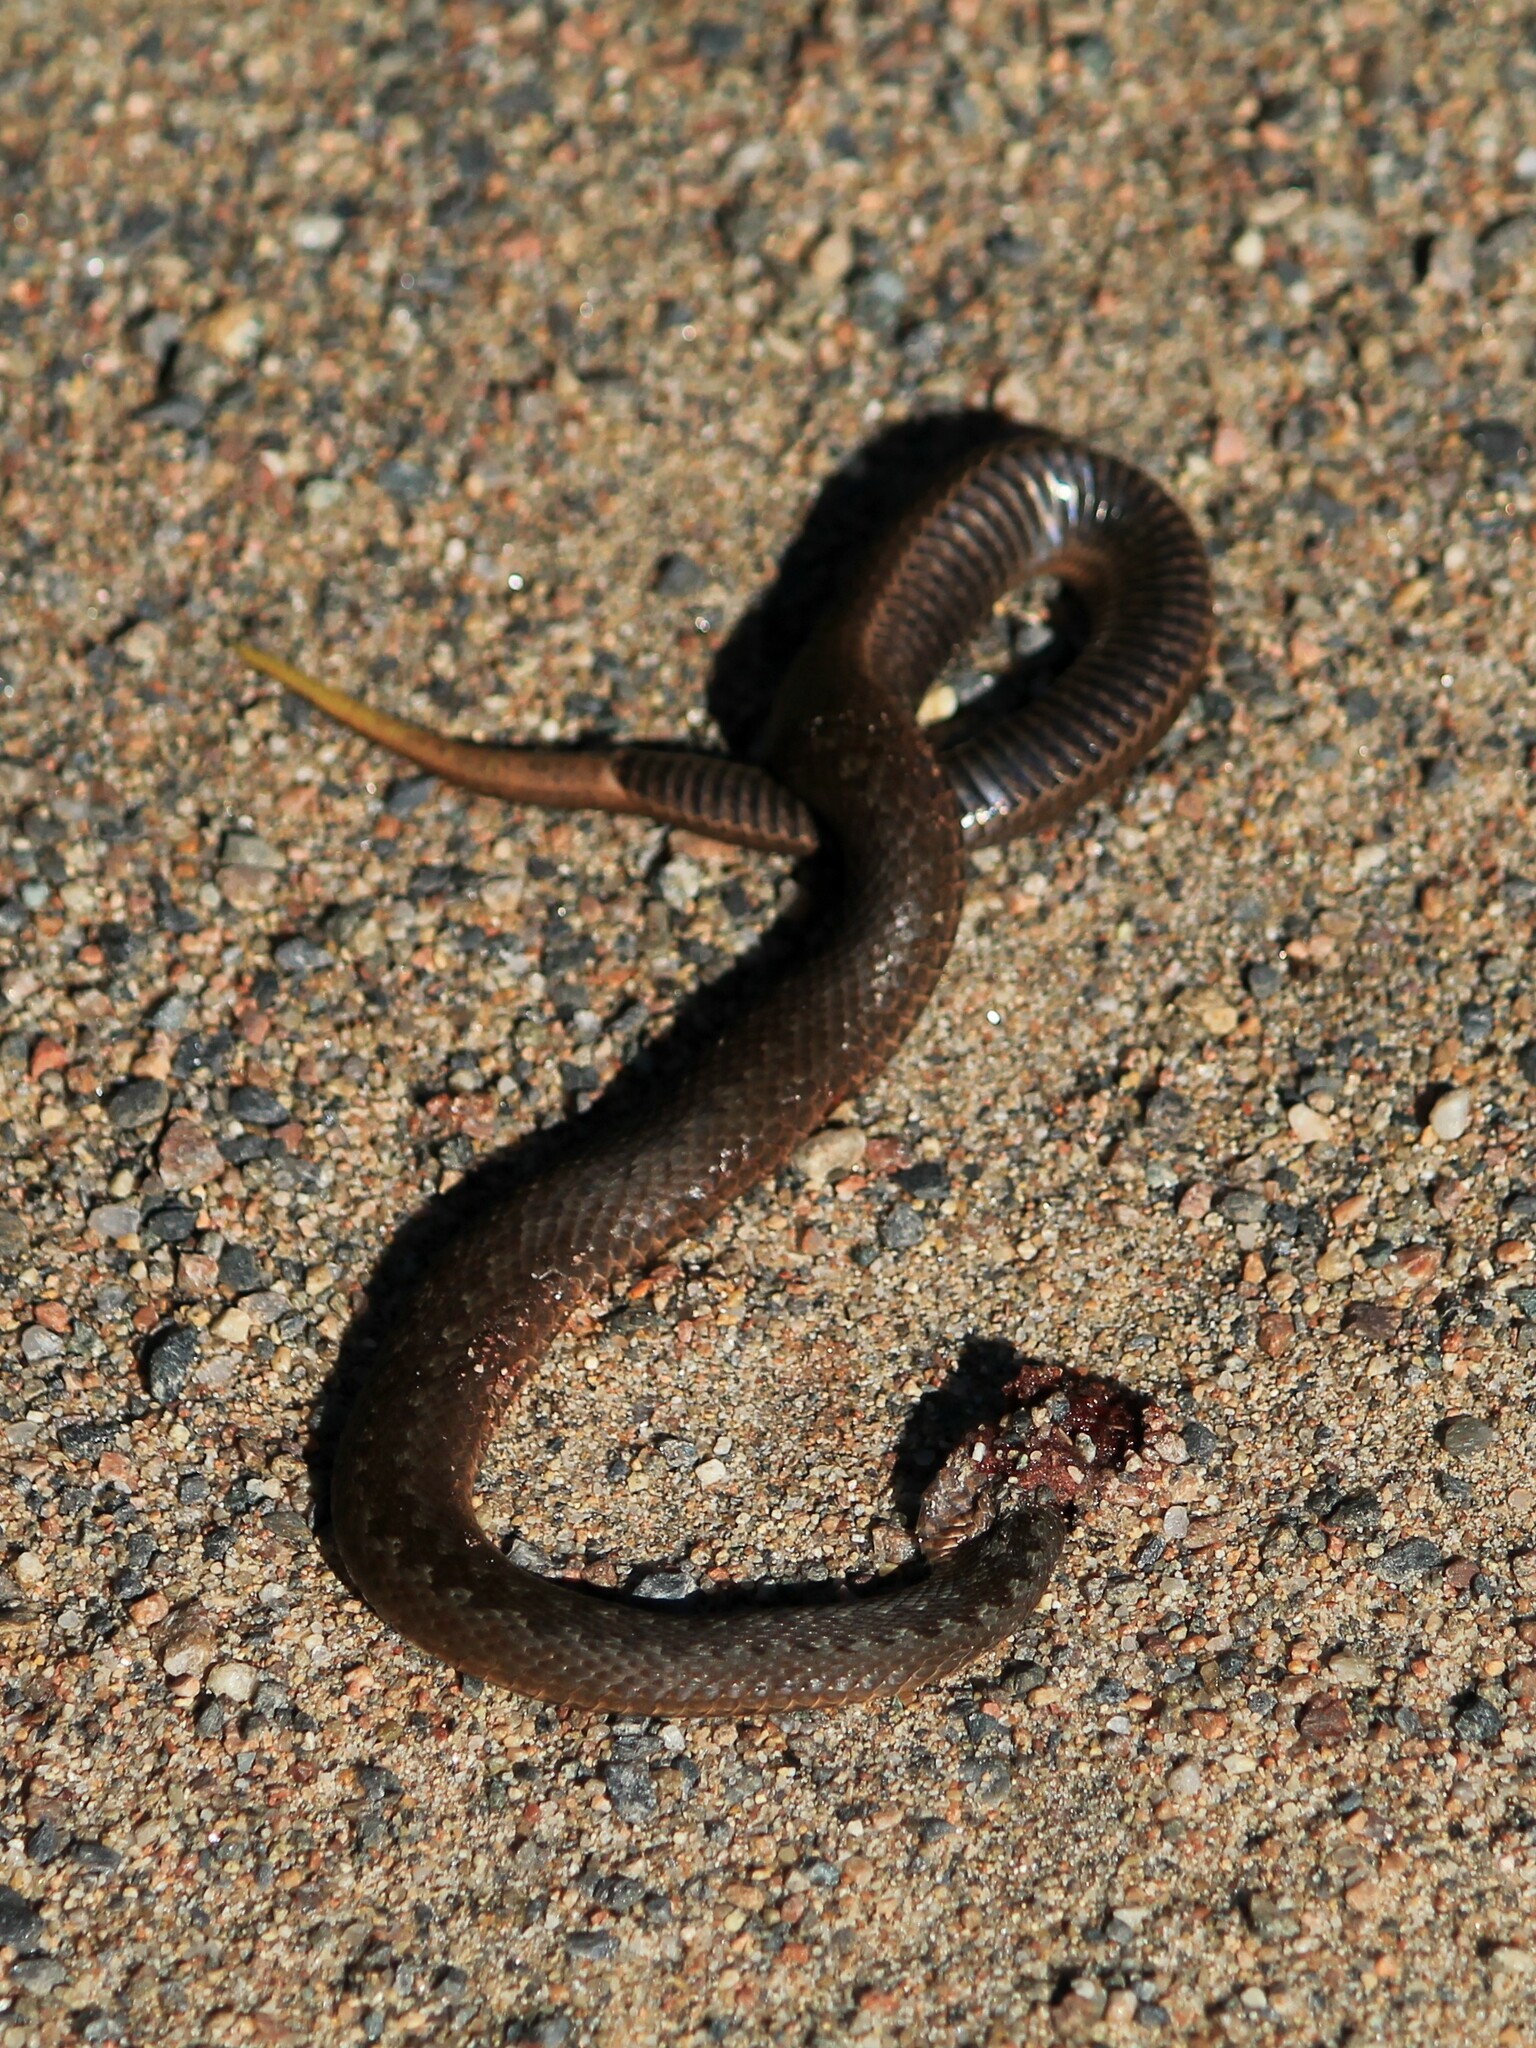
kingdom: Animalia
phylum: Chordata
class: Squamata
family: Viperidae
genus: Vipera
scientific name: Vipera berus
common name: Adder
